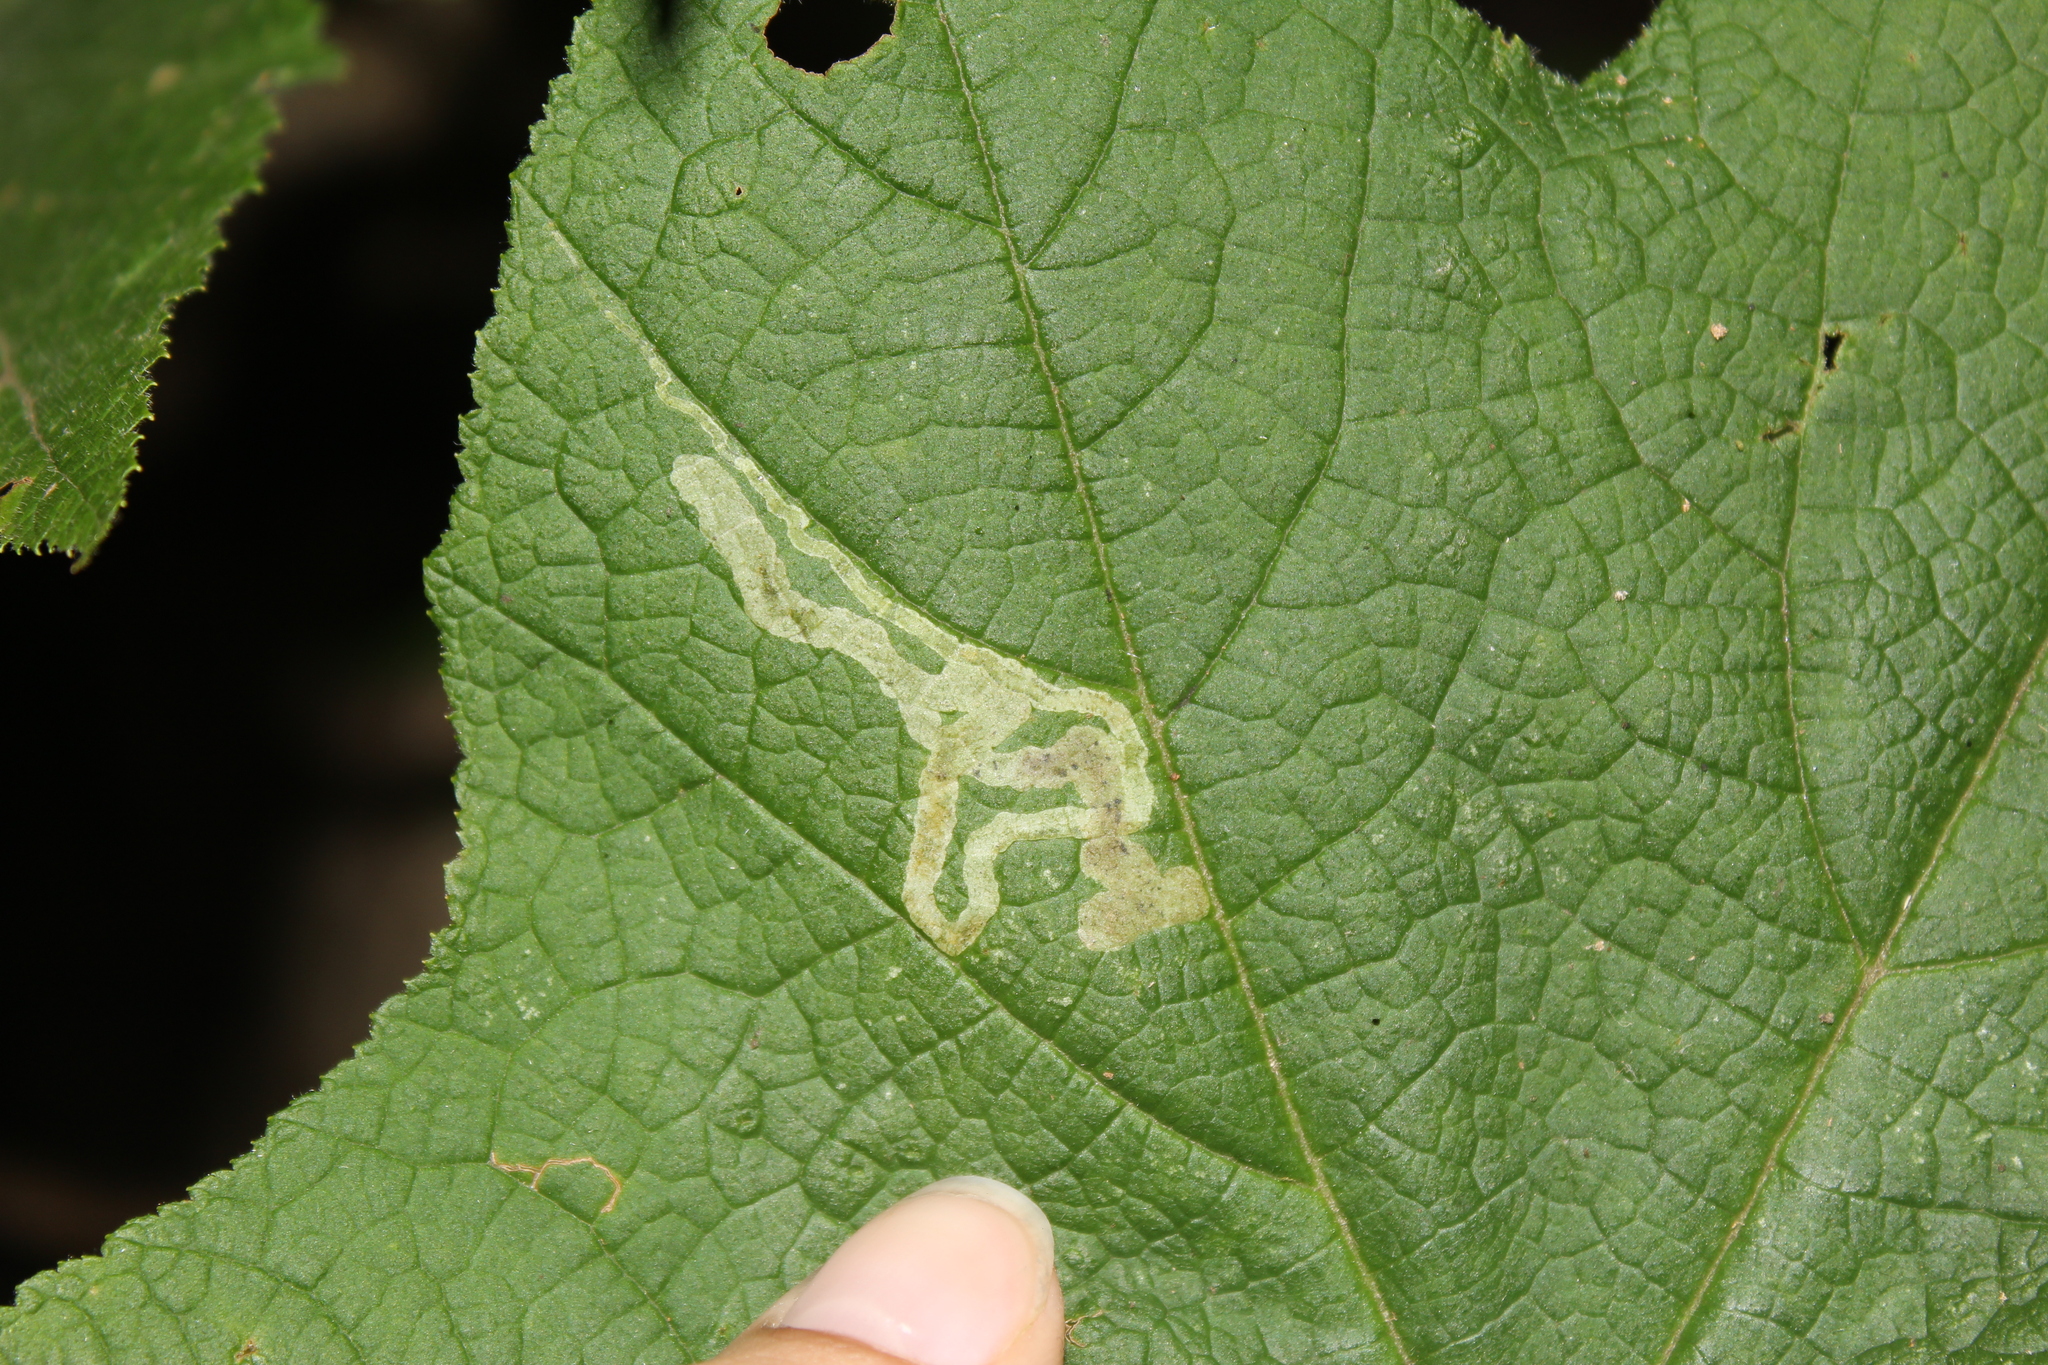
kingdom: Animalia
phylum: Arthropoda
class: Insecta
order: Diptera
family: Agromyzidae
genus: Agromyza
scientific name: Agromyza vockerothi
